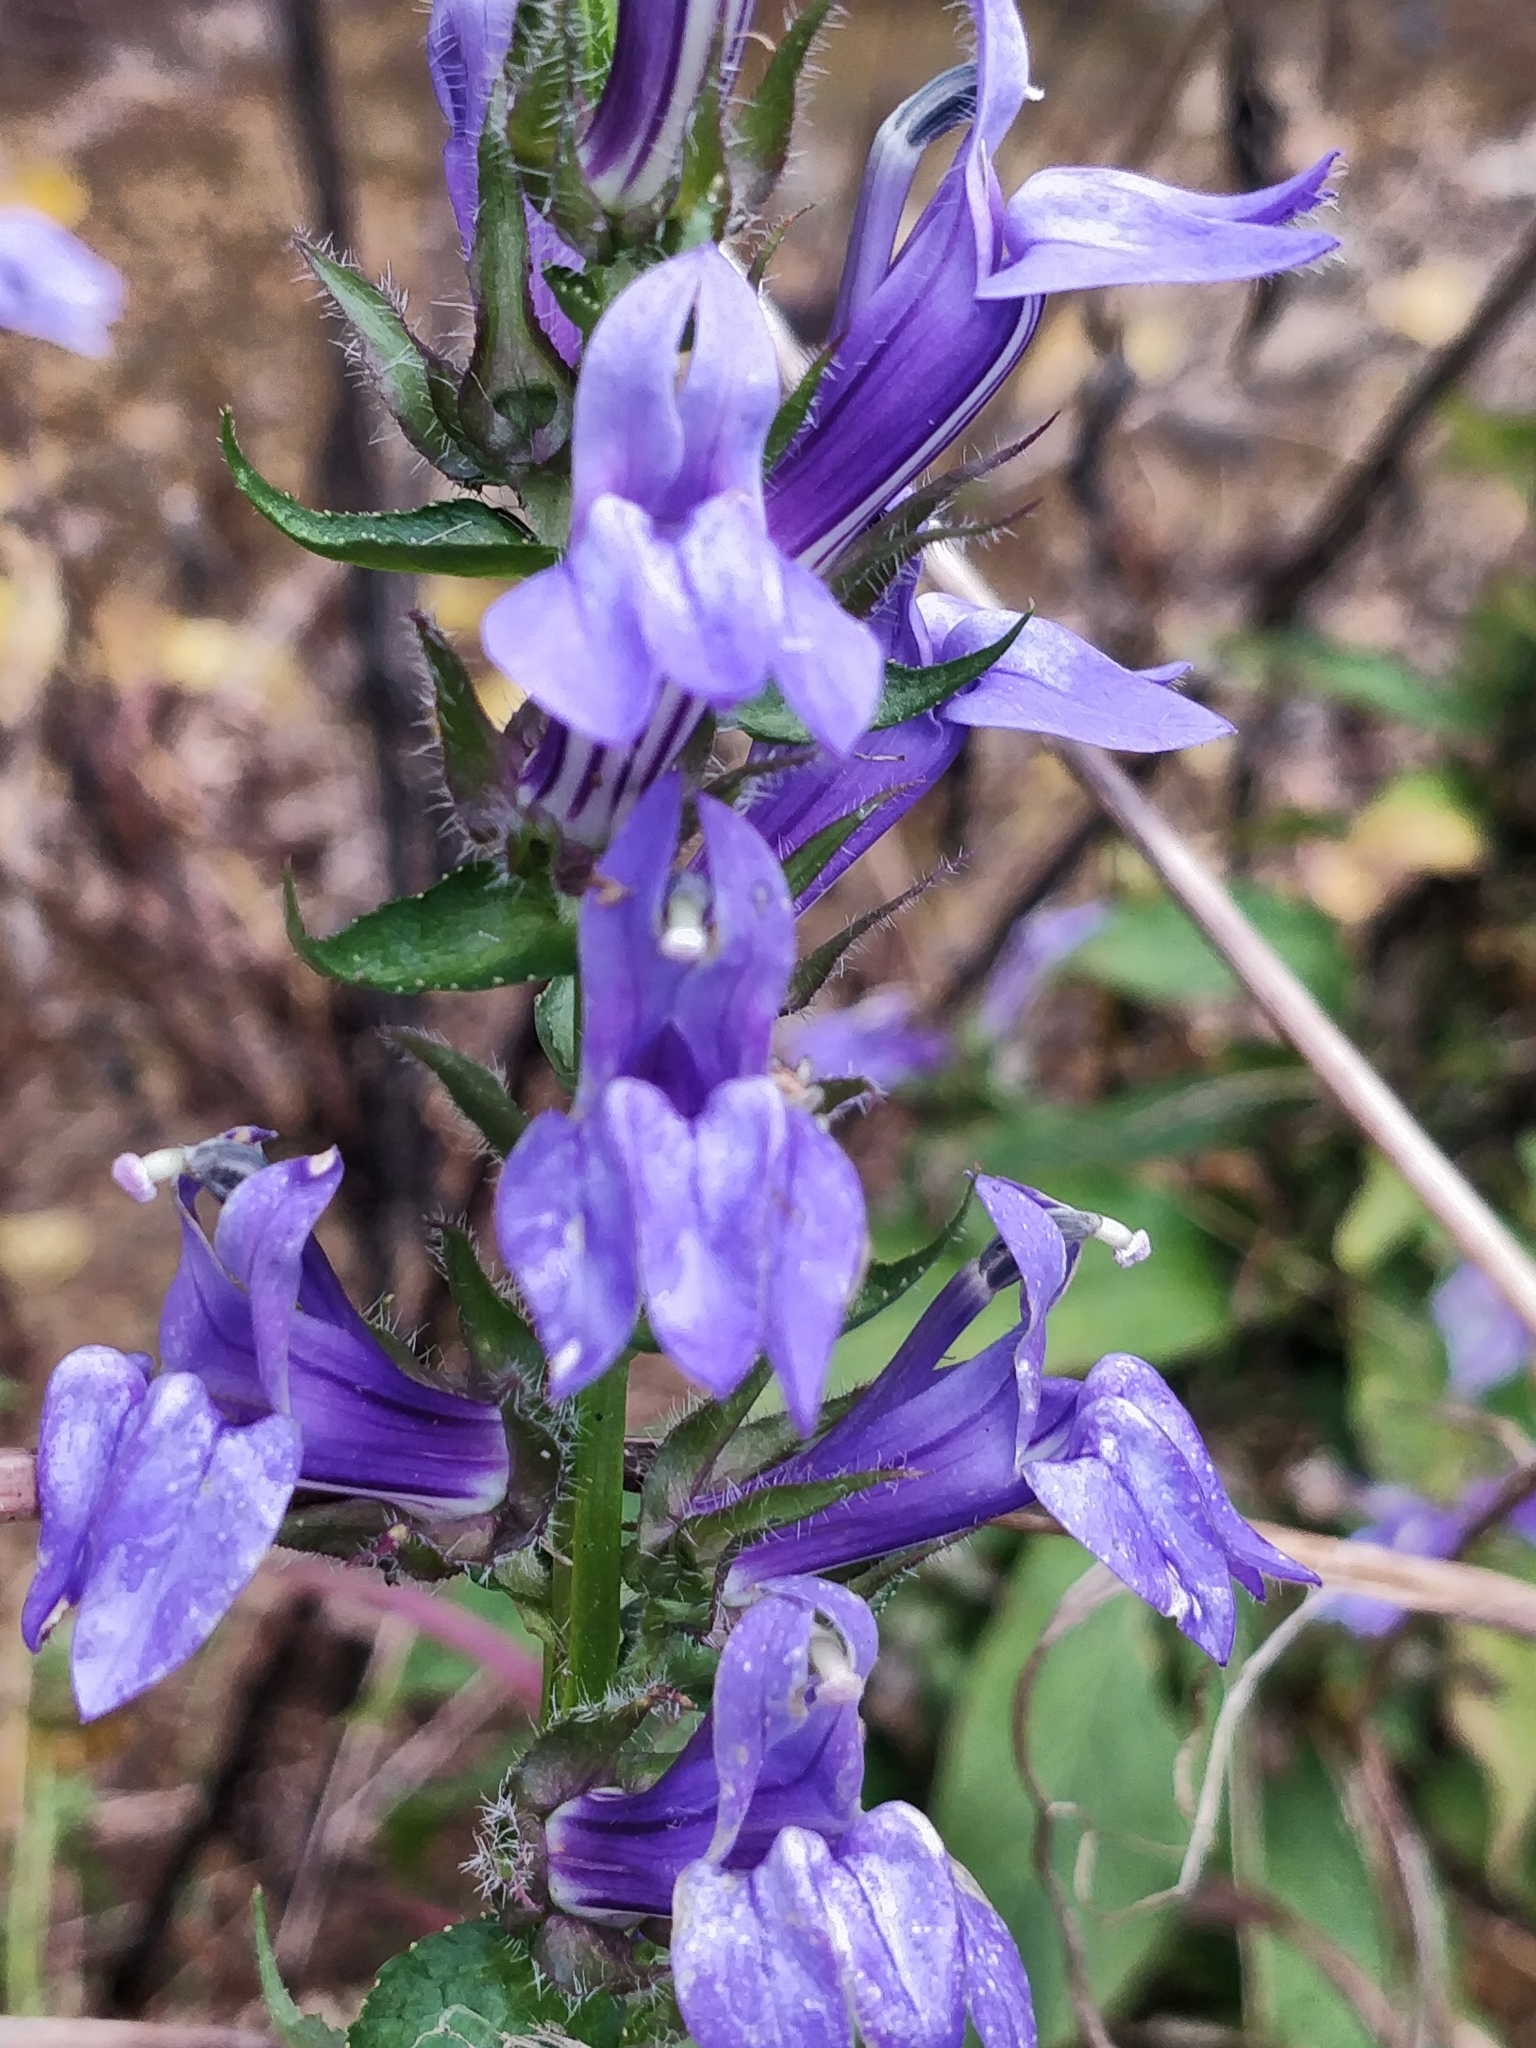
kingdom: Plantae
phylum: Tracheophyta
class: Magnoliopsida
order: Asterales
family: Campanulaceae
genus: Lobelia
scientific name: Lobelia siphilitica
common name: Great lobelia
